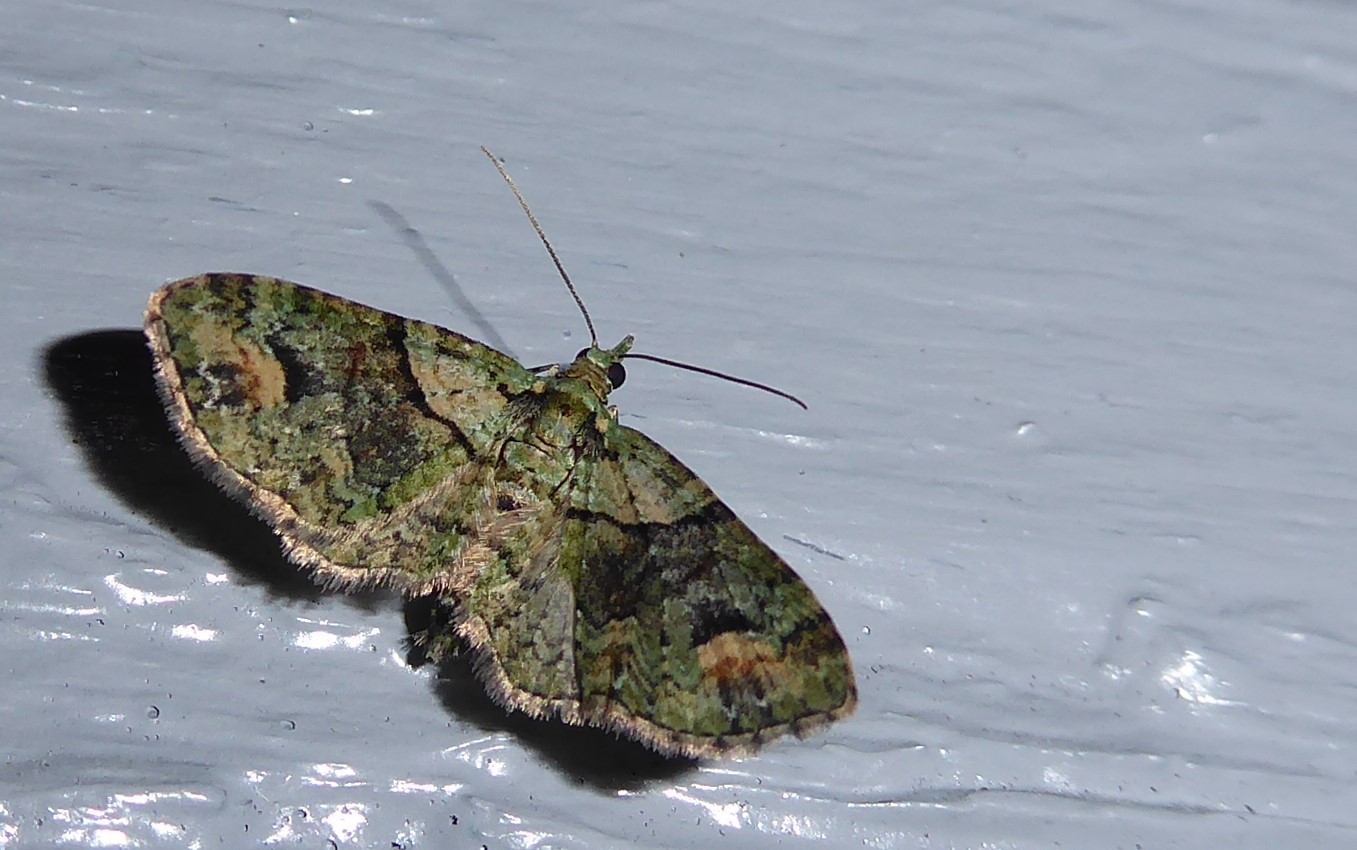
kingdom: Animalia
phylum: Arthropoda
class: Insecta
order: Lepidoptera
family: Geometridae
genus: Idaea
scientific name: Idaea mutanda
